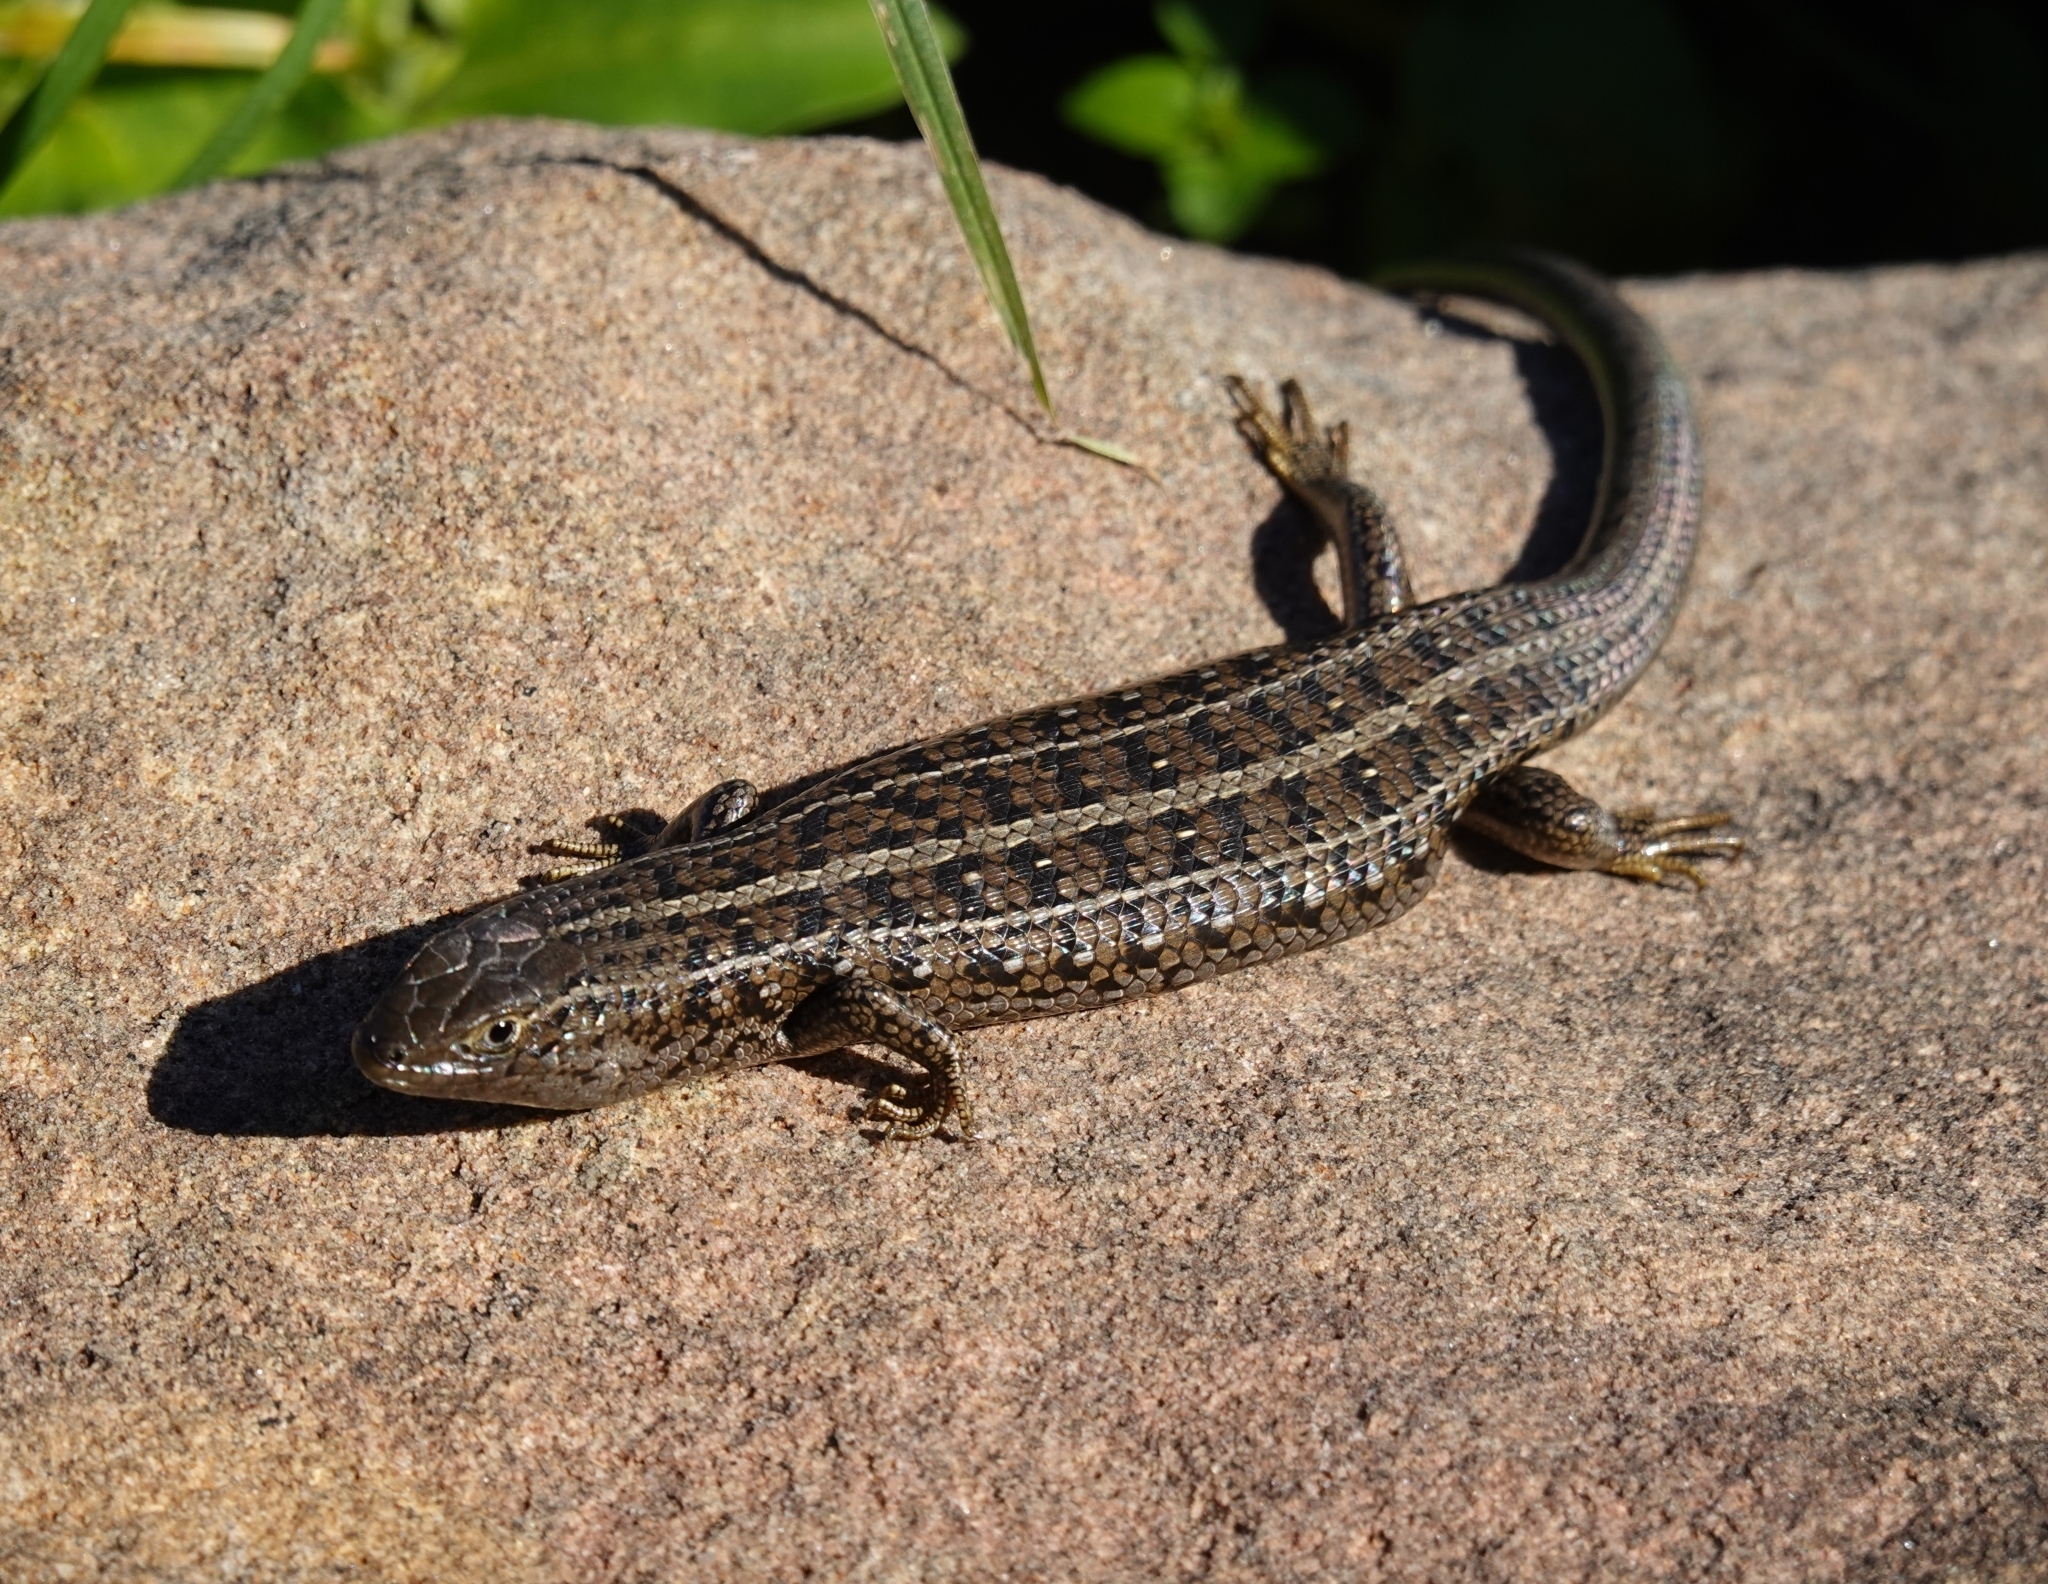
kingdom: Animalia
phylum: Chordata
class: Squamata
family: Scincidae
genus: Trachylepis
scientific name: Trachylepis capensis
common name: Cape skink
